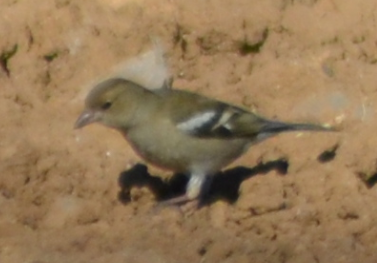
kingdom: Animalia
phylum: Chordata
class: Aves
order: Passeriformes
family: Fringillidae
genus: Fringilla
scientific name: Fringilla coelebs
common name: Common chaffinch
